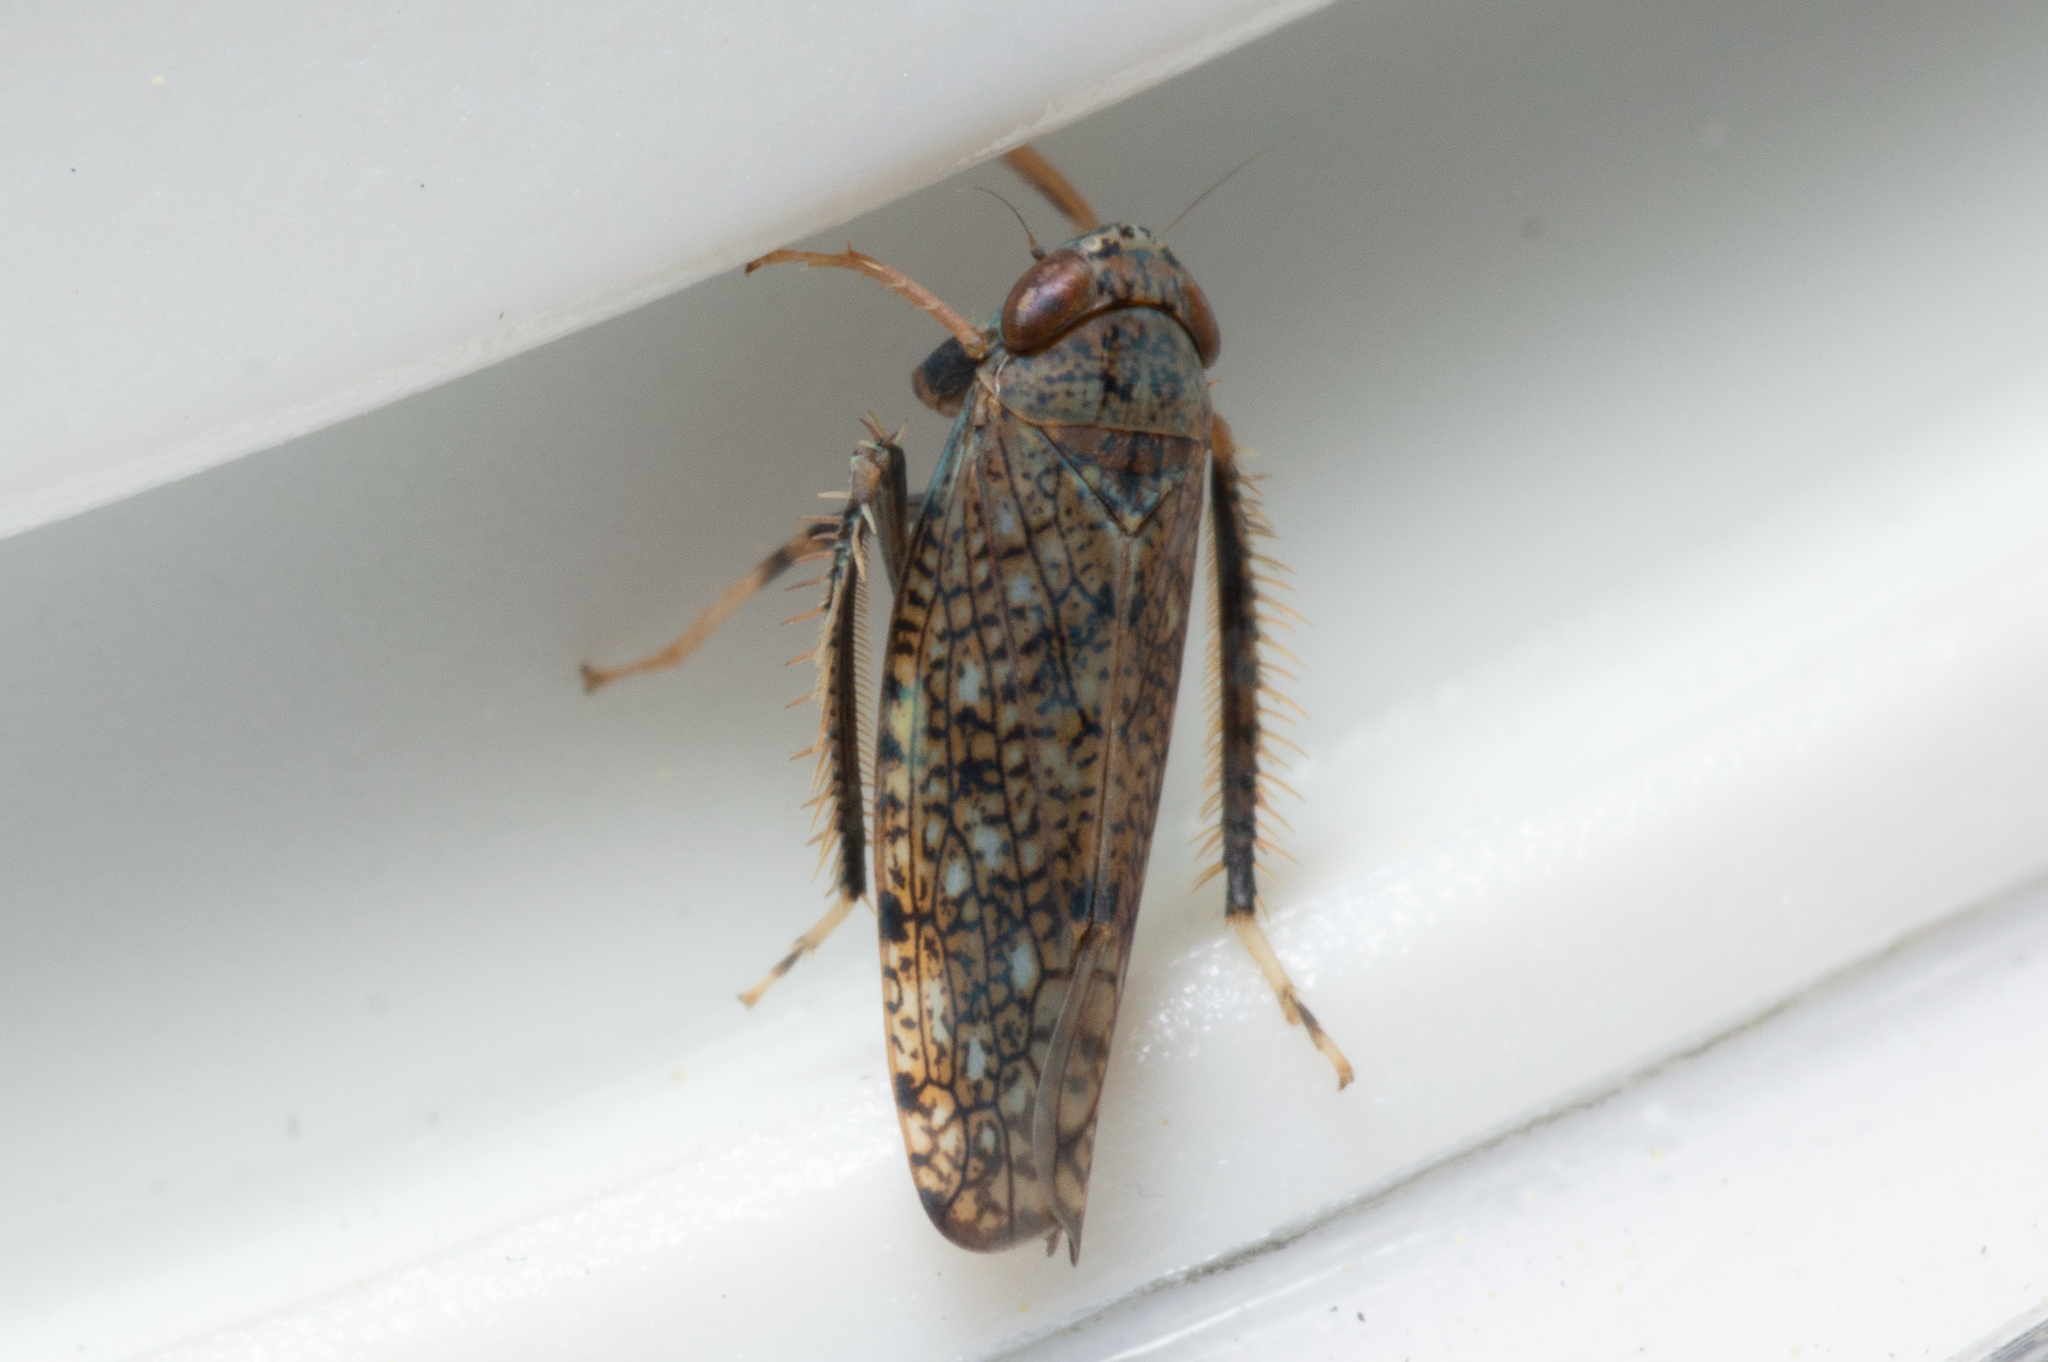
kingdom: Animalia
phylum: Arthropoda
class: Insecta
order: Hemiptera
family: Cicadellidae
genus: Orientus
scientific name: Orientus ishidae
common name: Japanese leafhopper
